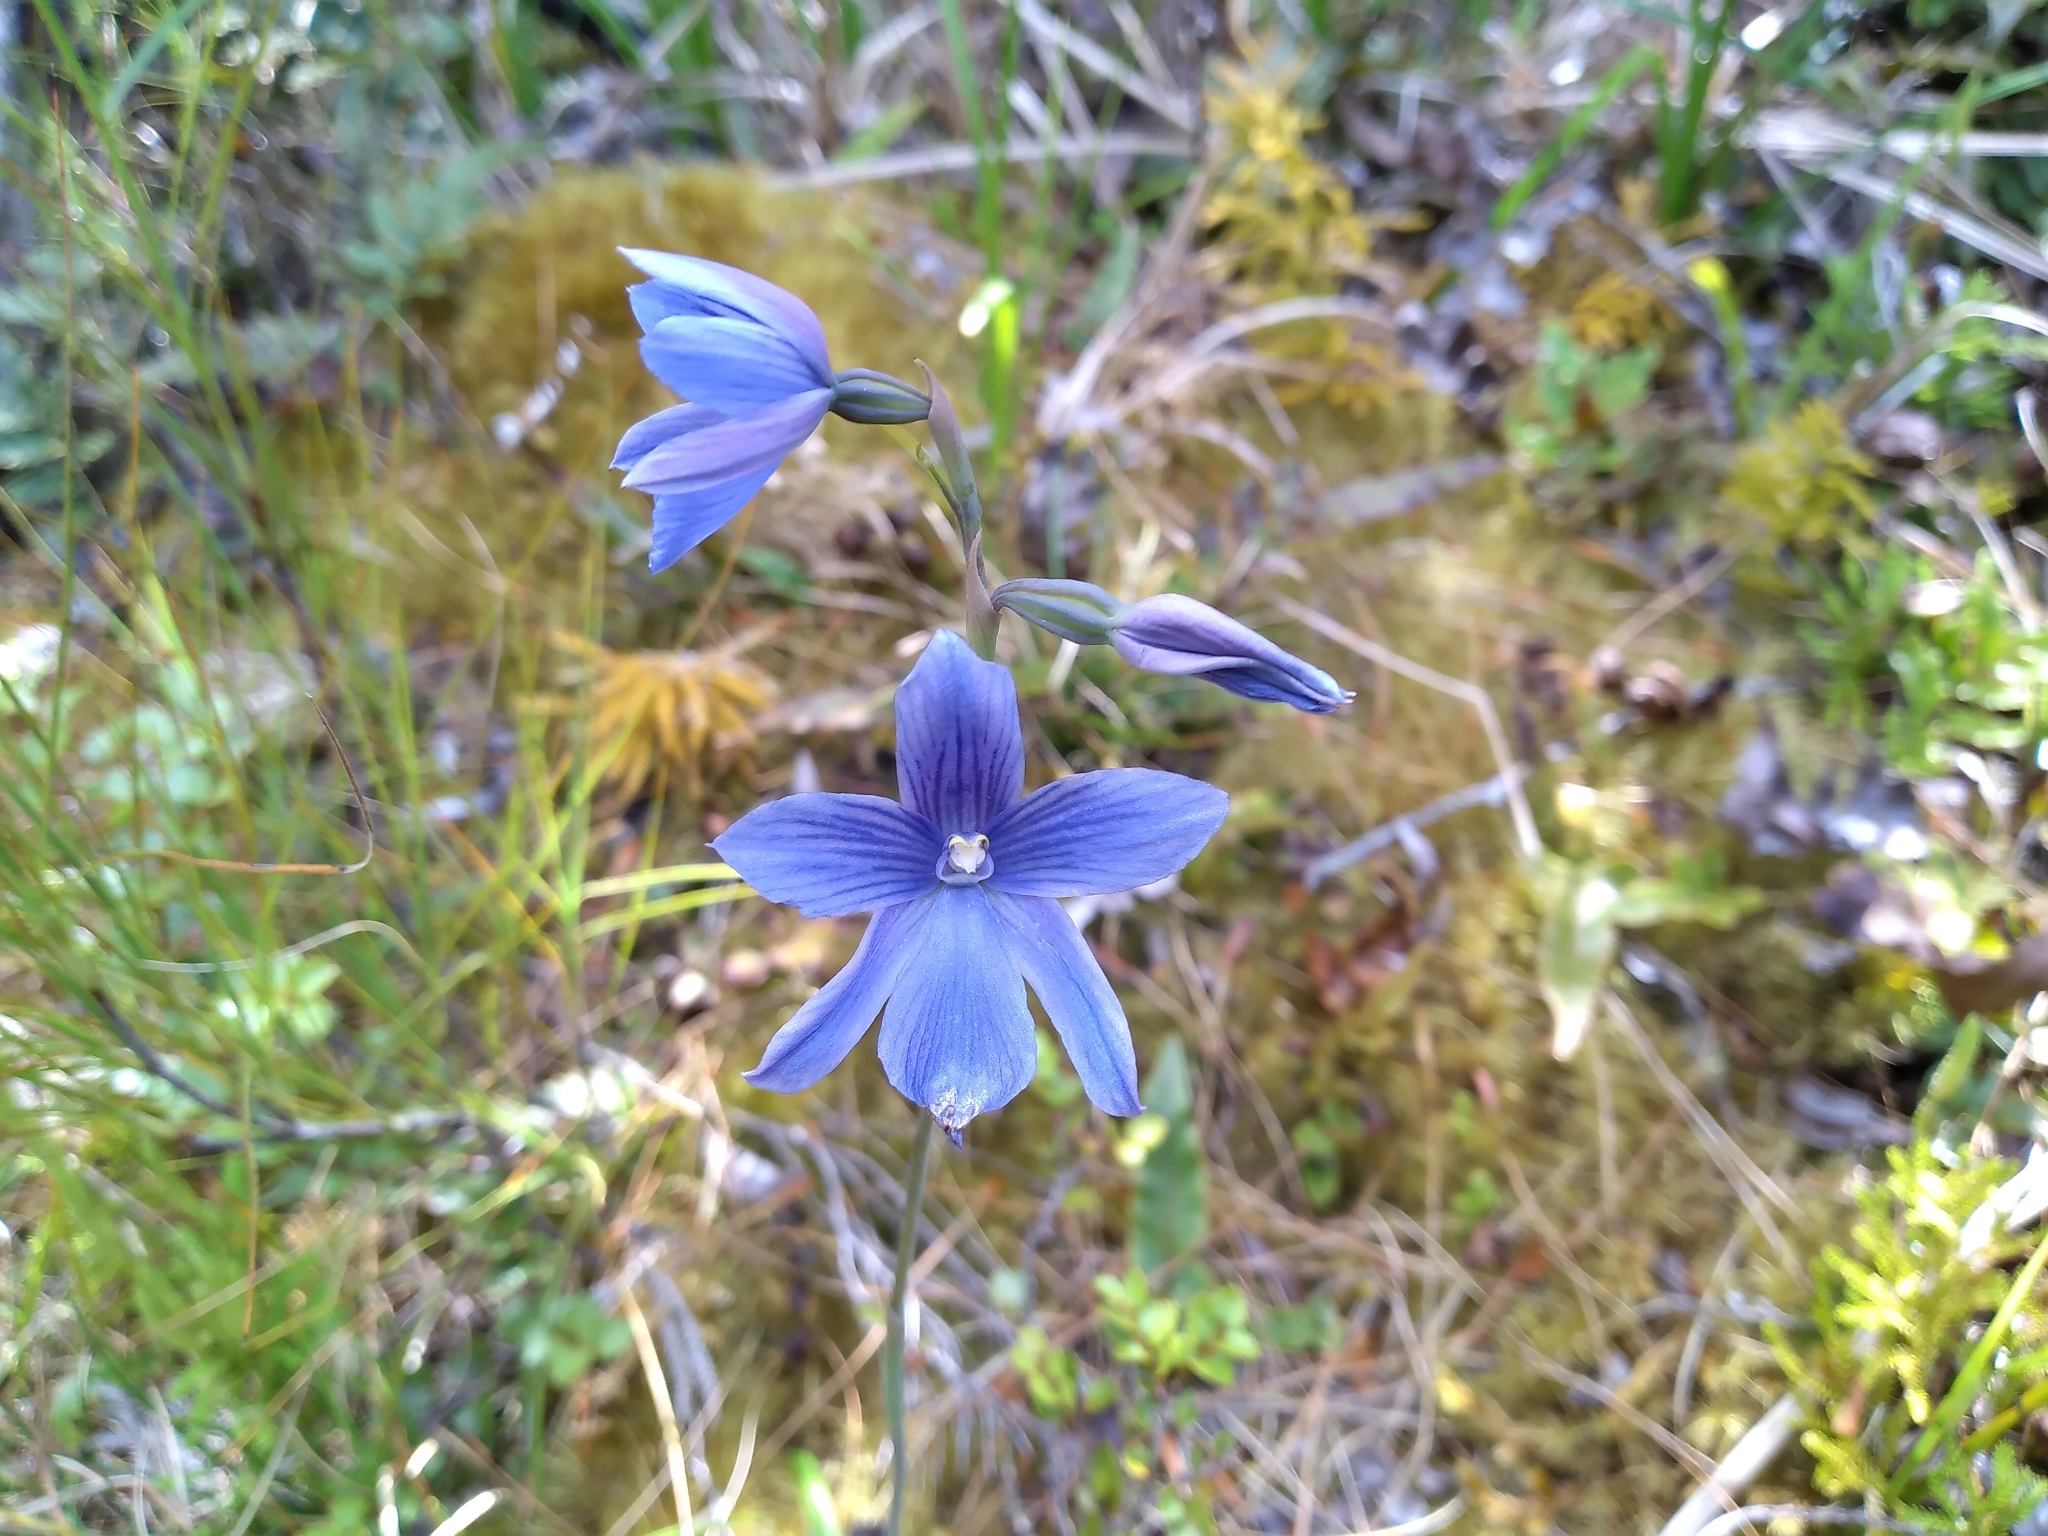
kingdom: Plantae
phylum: Tracheophyta
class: Liliopsida
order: Asparagales
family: Orchidaceae
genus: Thelymitra
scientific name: Thelymitra cyanea
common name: Blue sun-orchid
